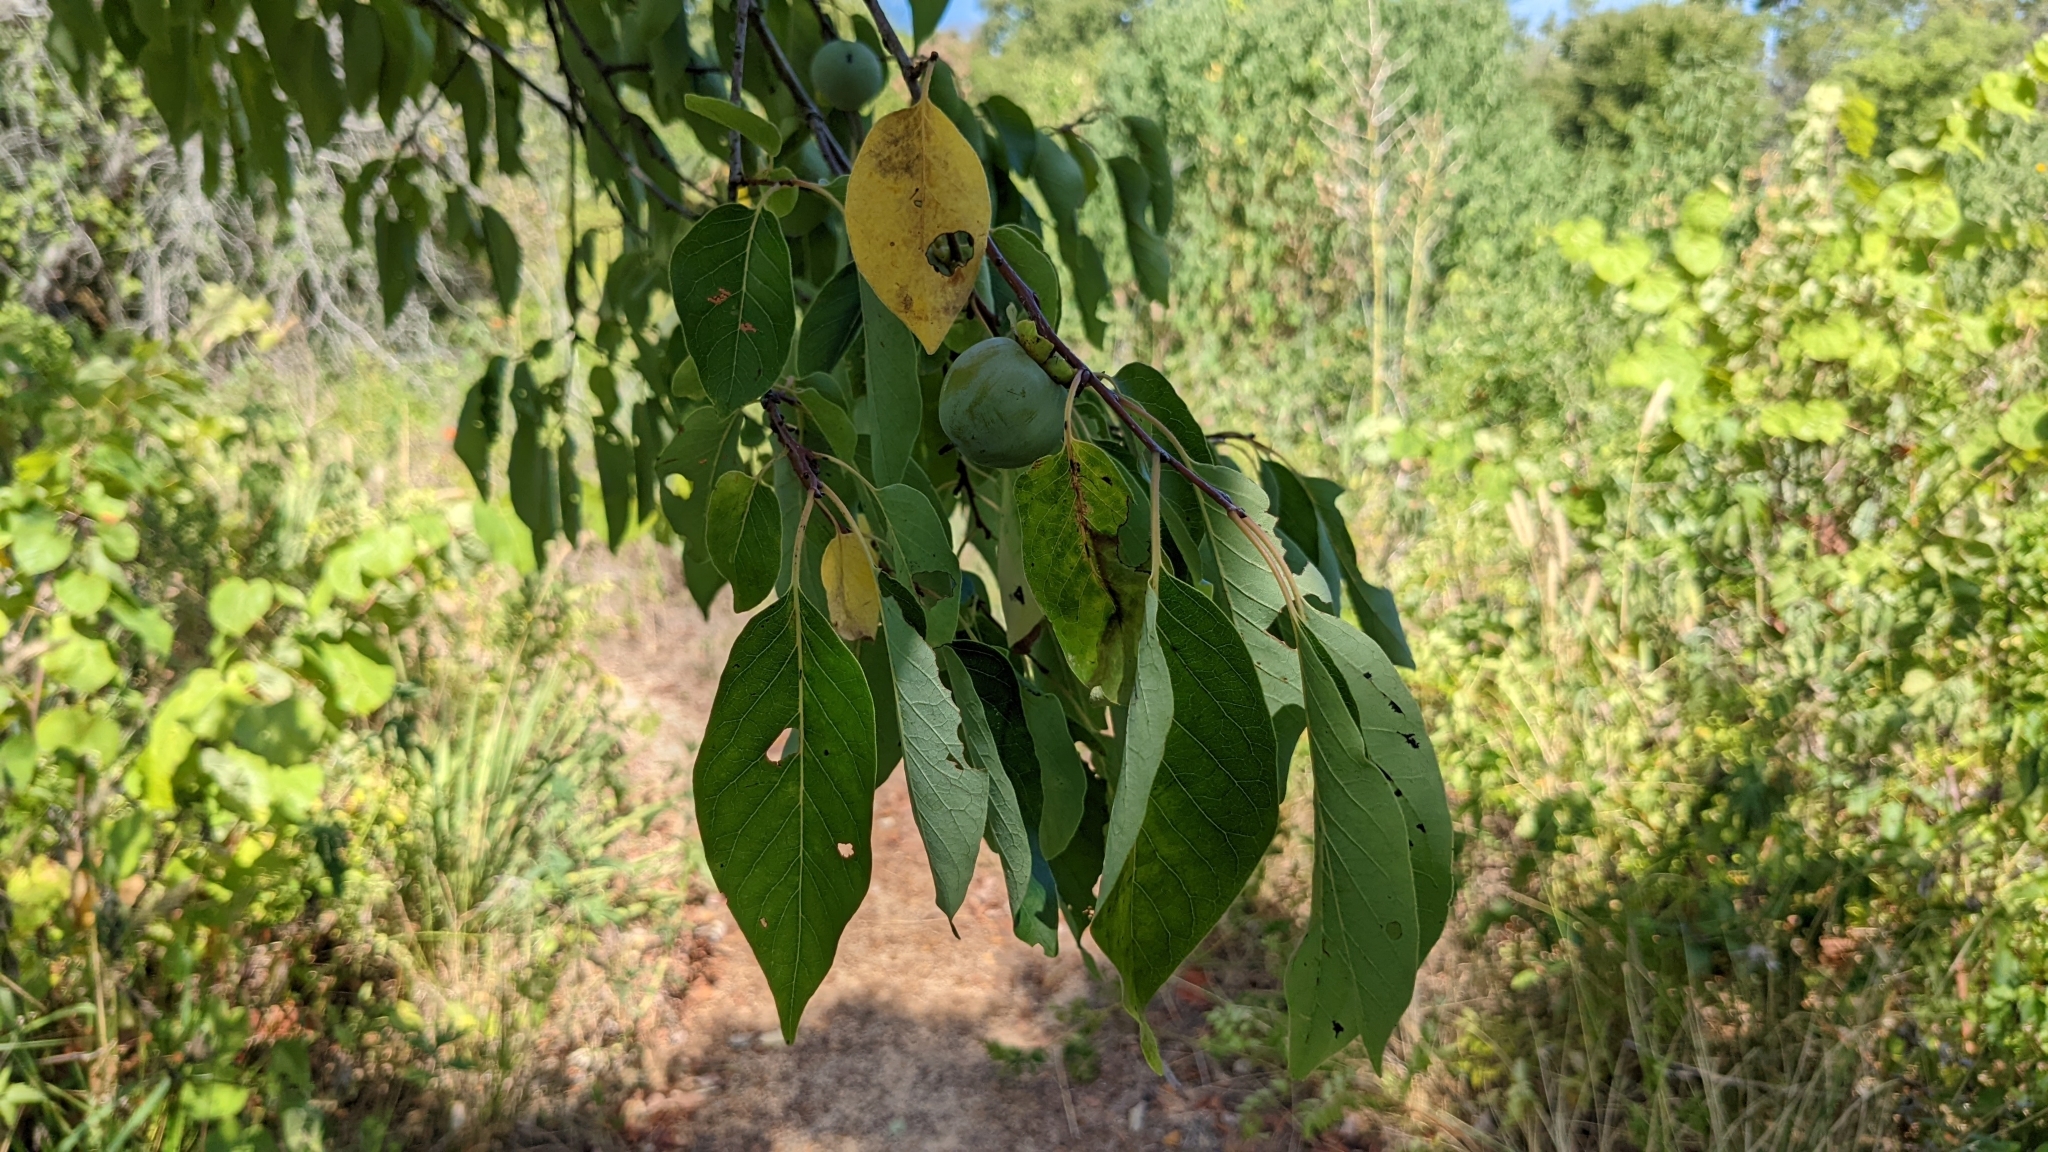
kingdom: Plantae
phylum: Tracheophyta
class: Magnoliopsida
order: Ericales
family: Ebenaceae
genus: Diospyros
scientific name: Diospyros virginiana
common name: Persimmon
